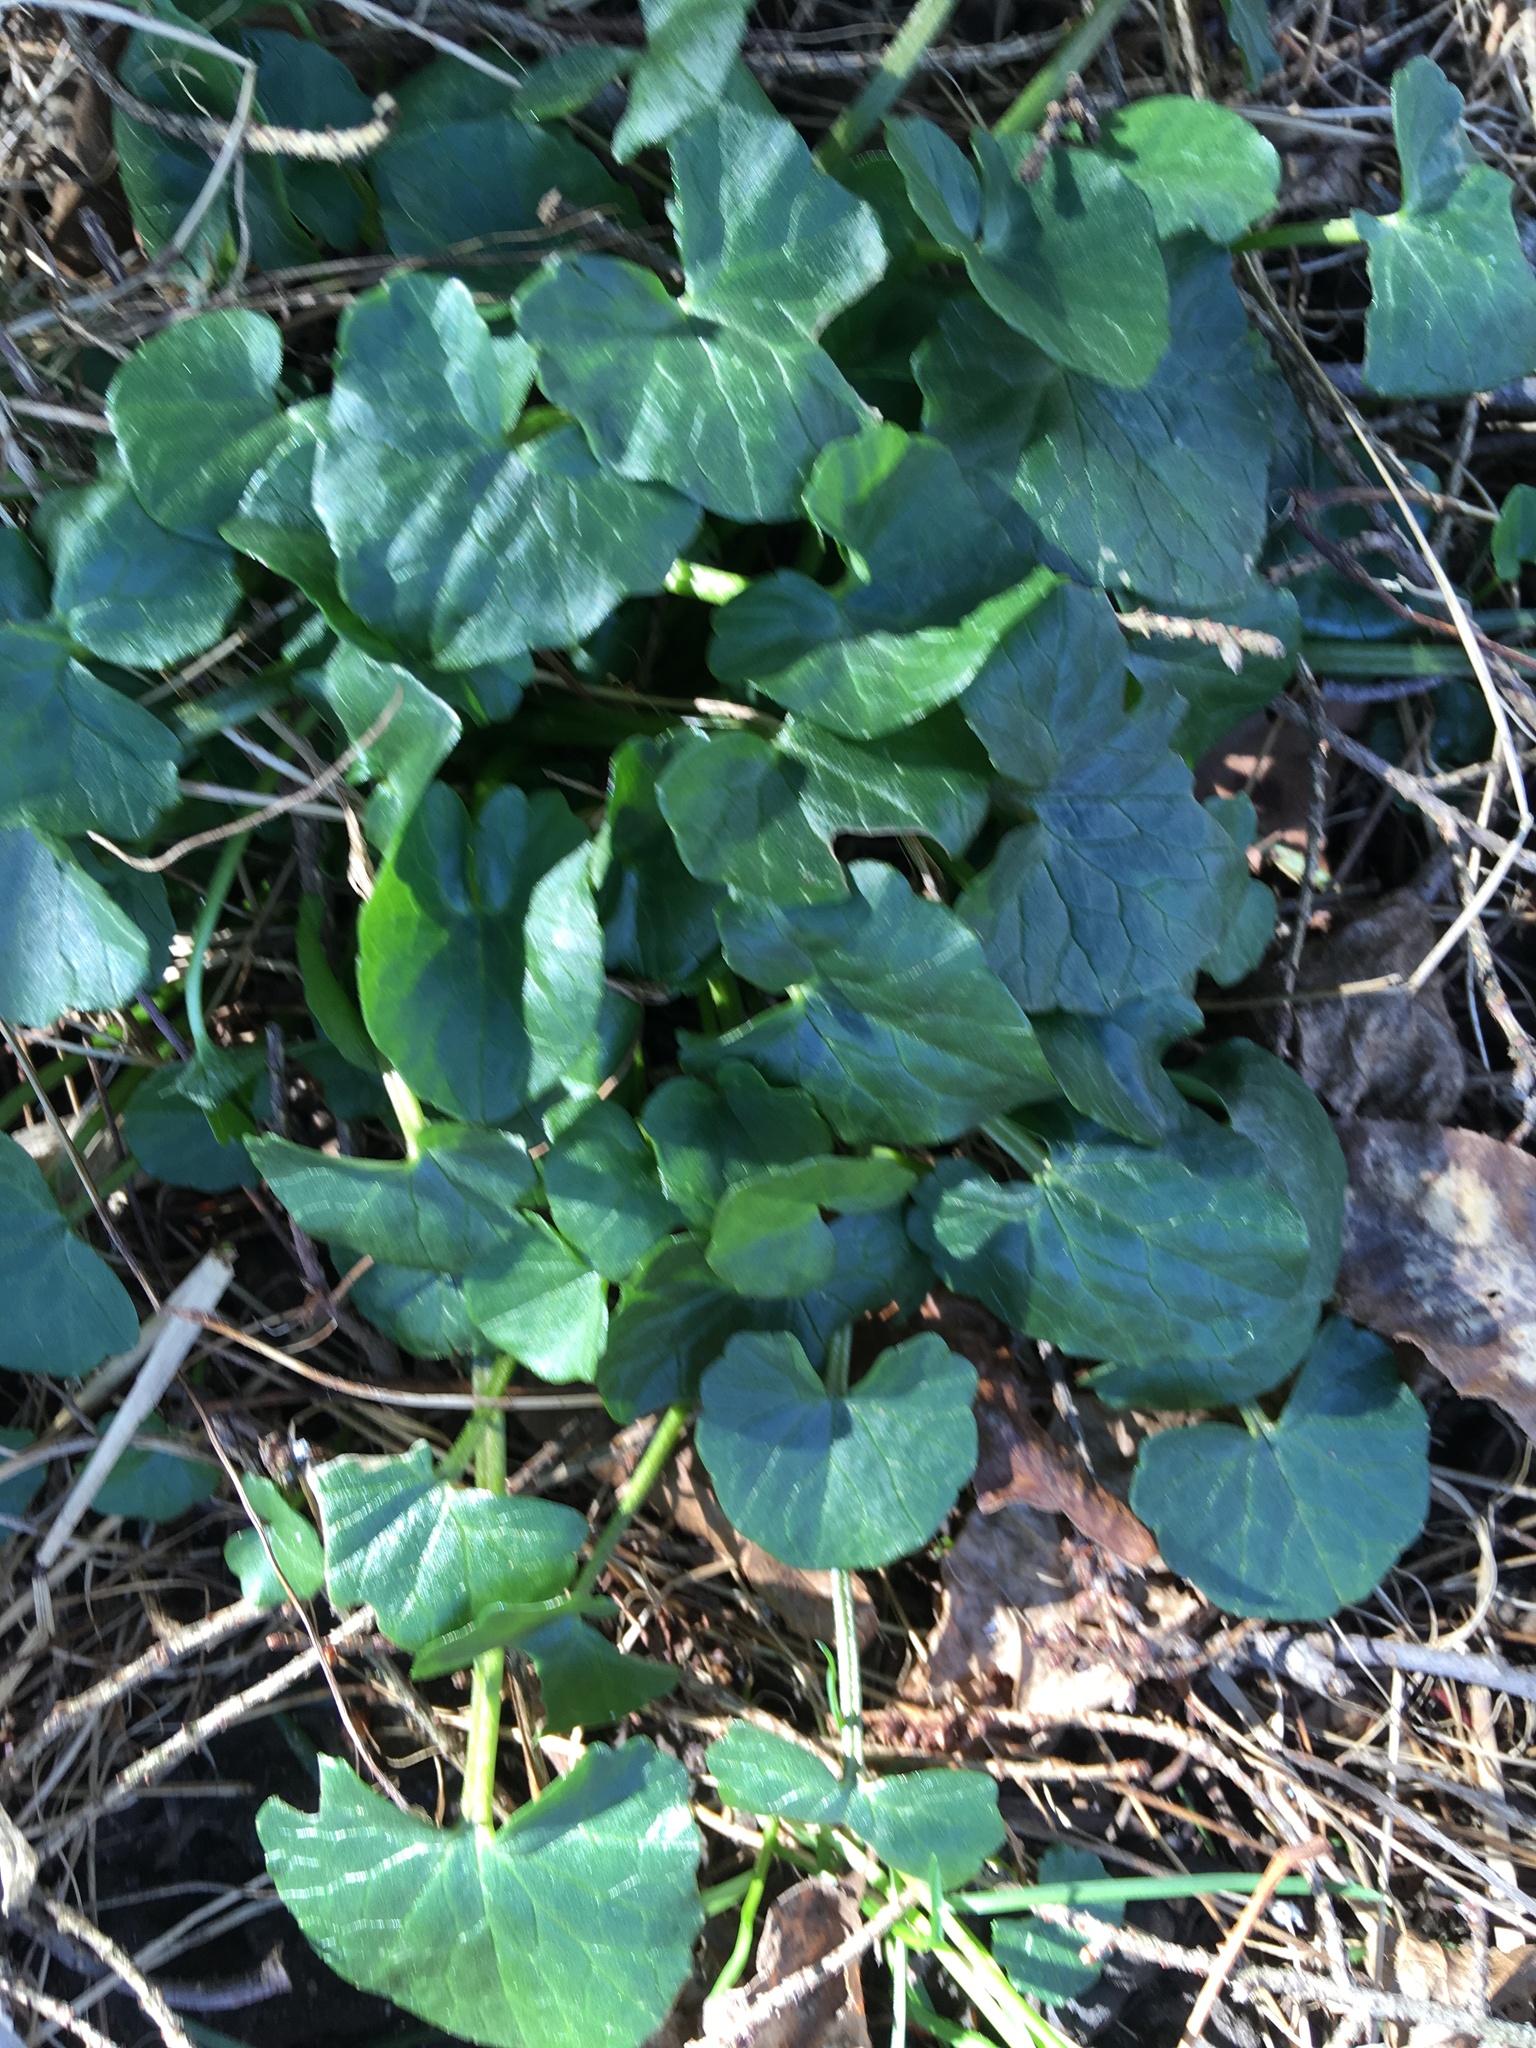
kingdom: Plantae
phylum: Tracheophyta
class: Magnoliopsida
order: Ranunculales
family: Ranunculaceae
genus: Ficaria
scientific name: Ficaria verna
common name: Lesser celandine
